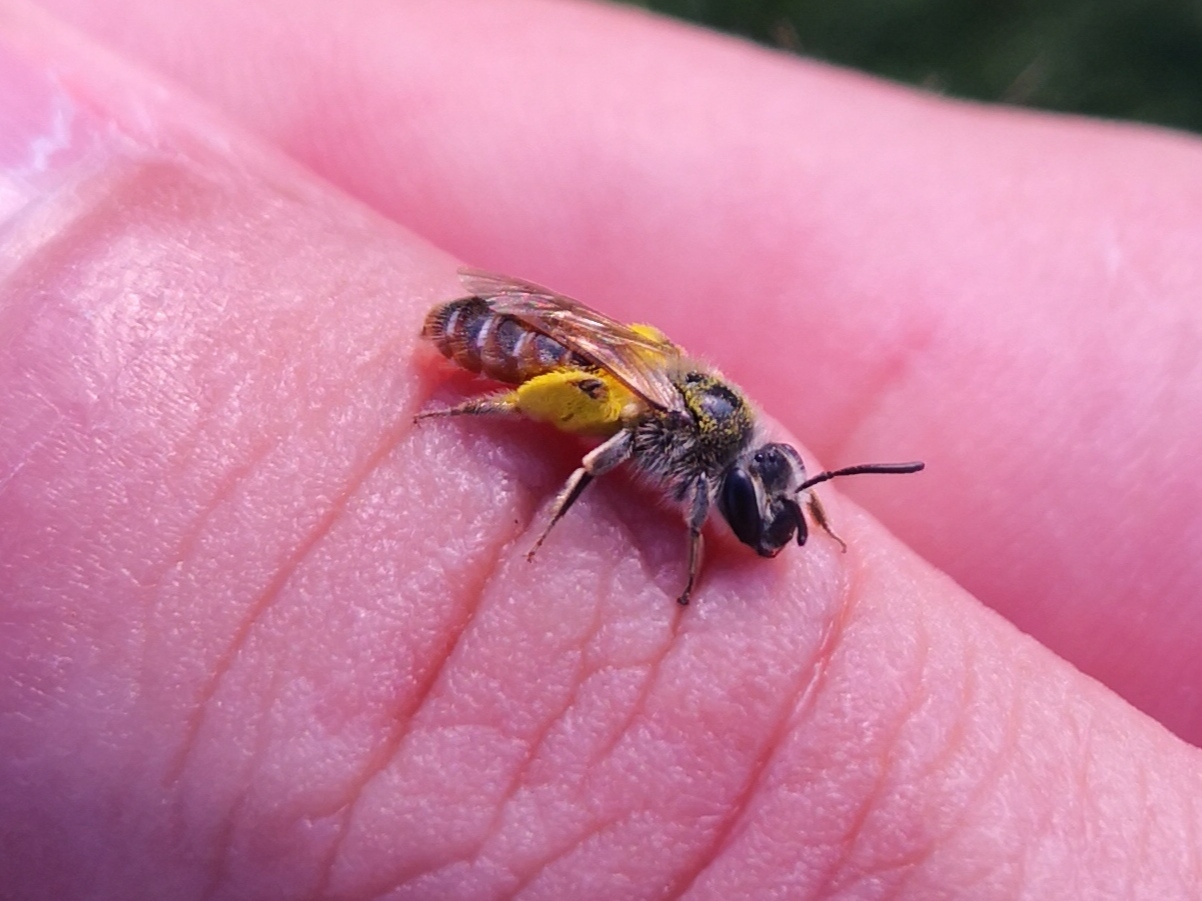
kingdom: Animalia
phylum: Arthropoda
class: Insecta
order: Hymenoptera
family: Andrenidae
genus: Andrena
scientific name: Andrena ventralis
